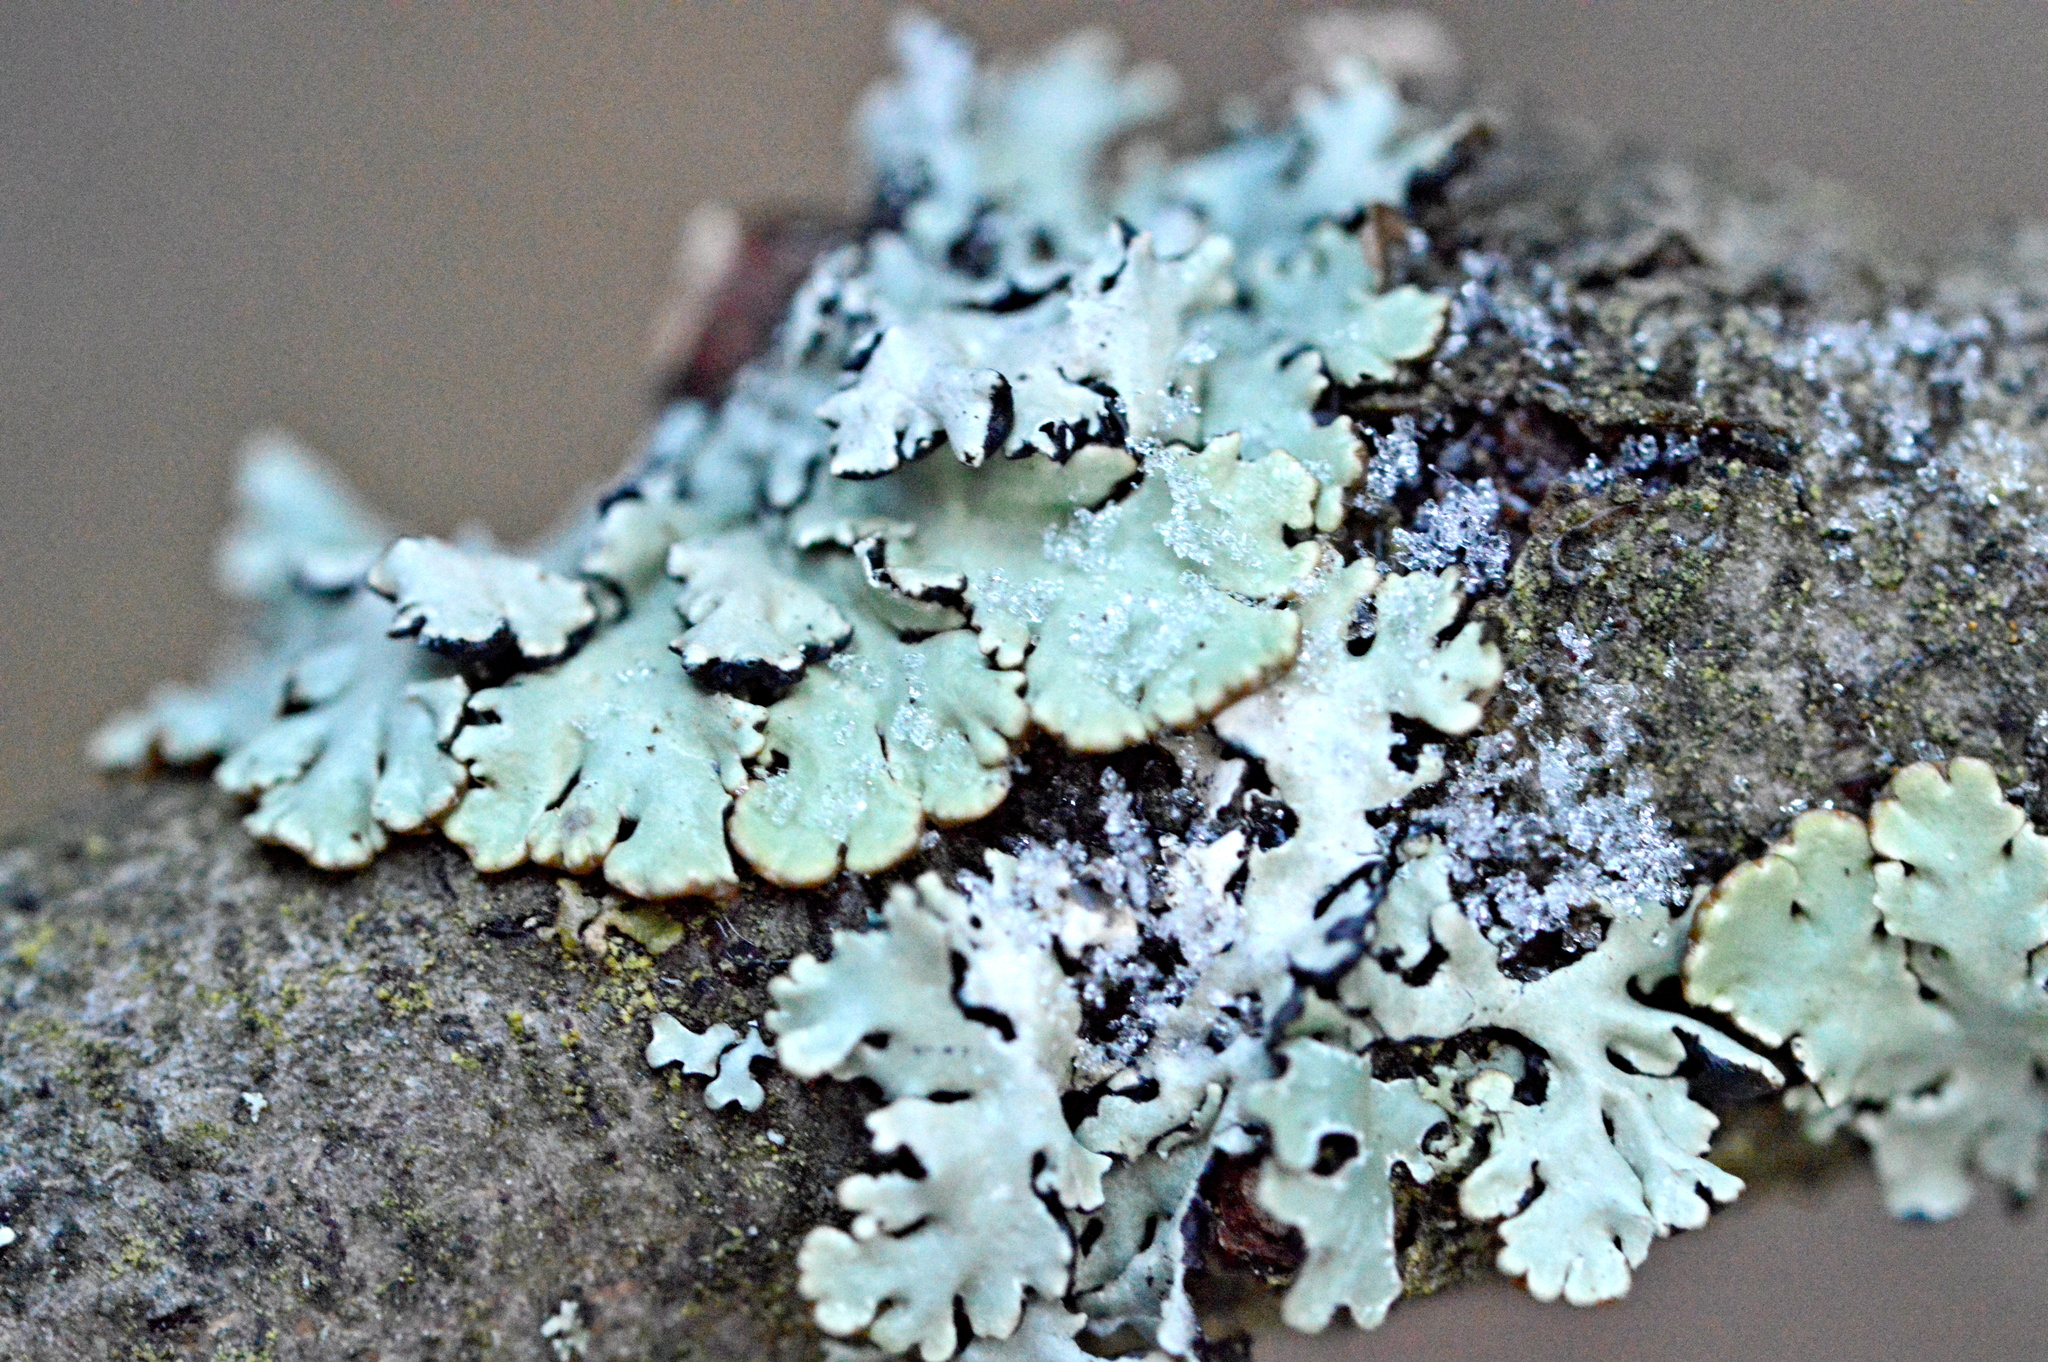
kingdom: Fungi
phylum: Ascomycota
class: Lecanoromycetes
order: Lecanorales
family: Parmeliaceae
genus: Hypogymnia
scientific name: Hypogymnia physodes
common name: Dark crottle
